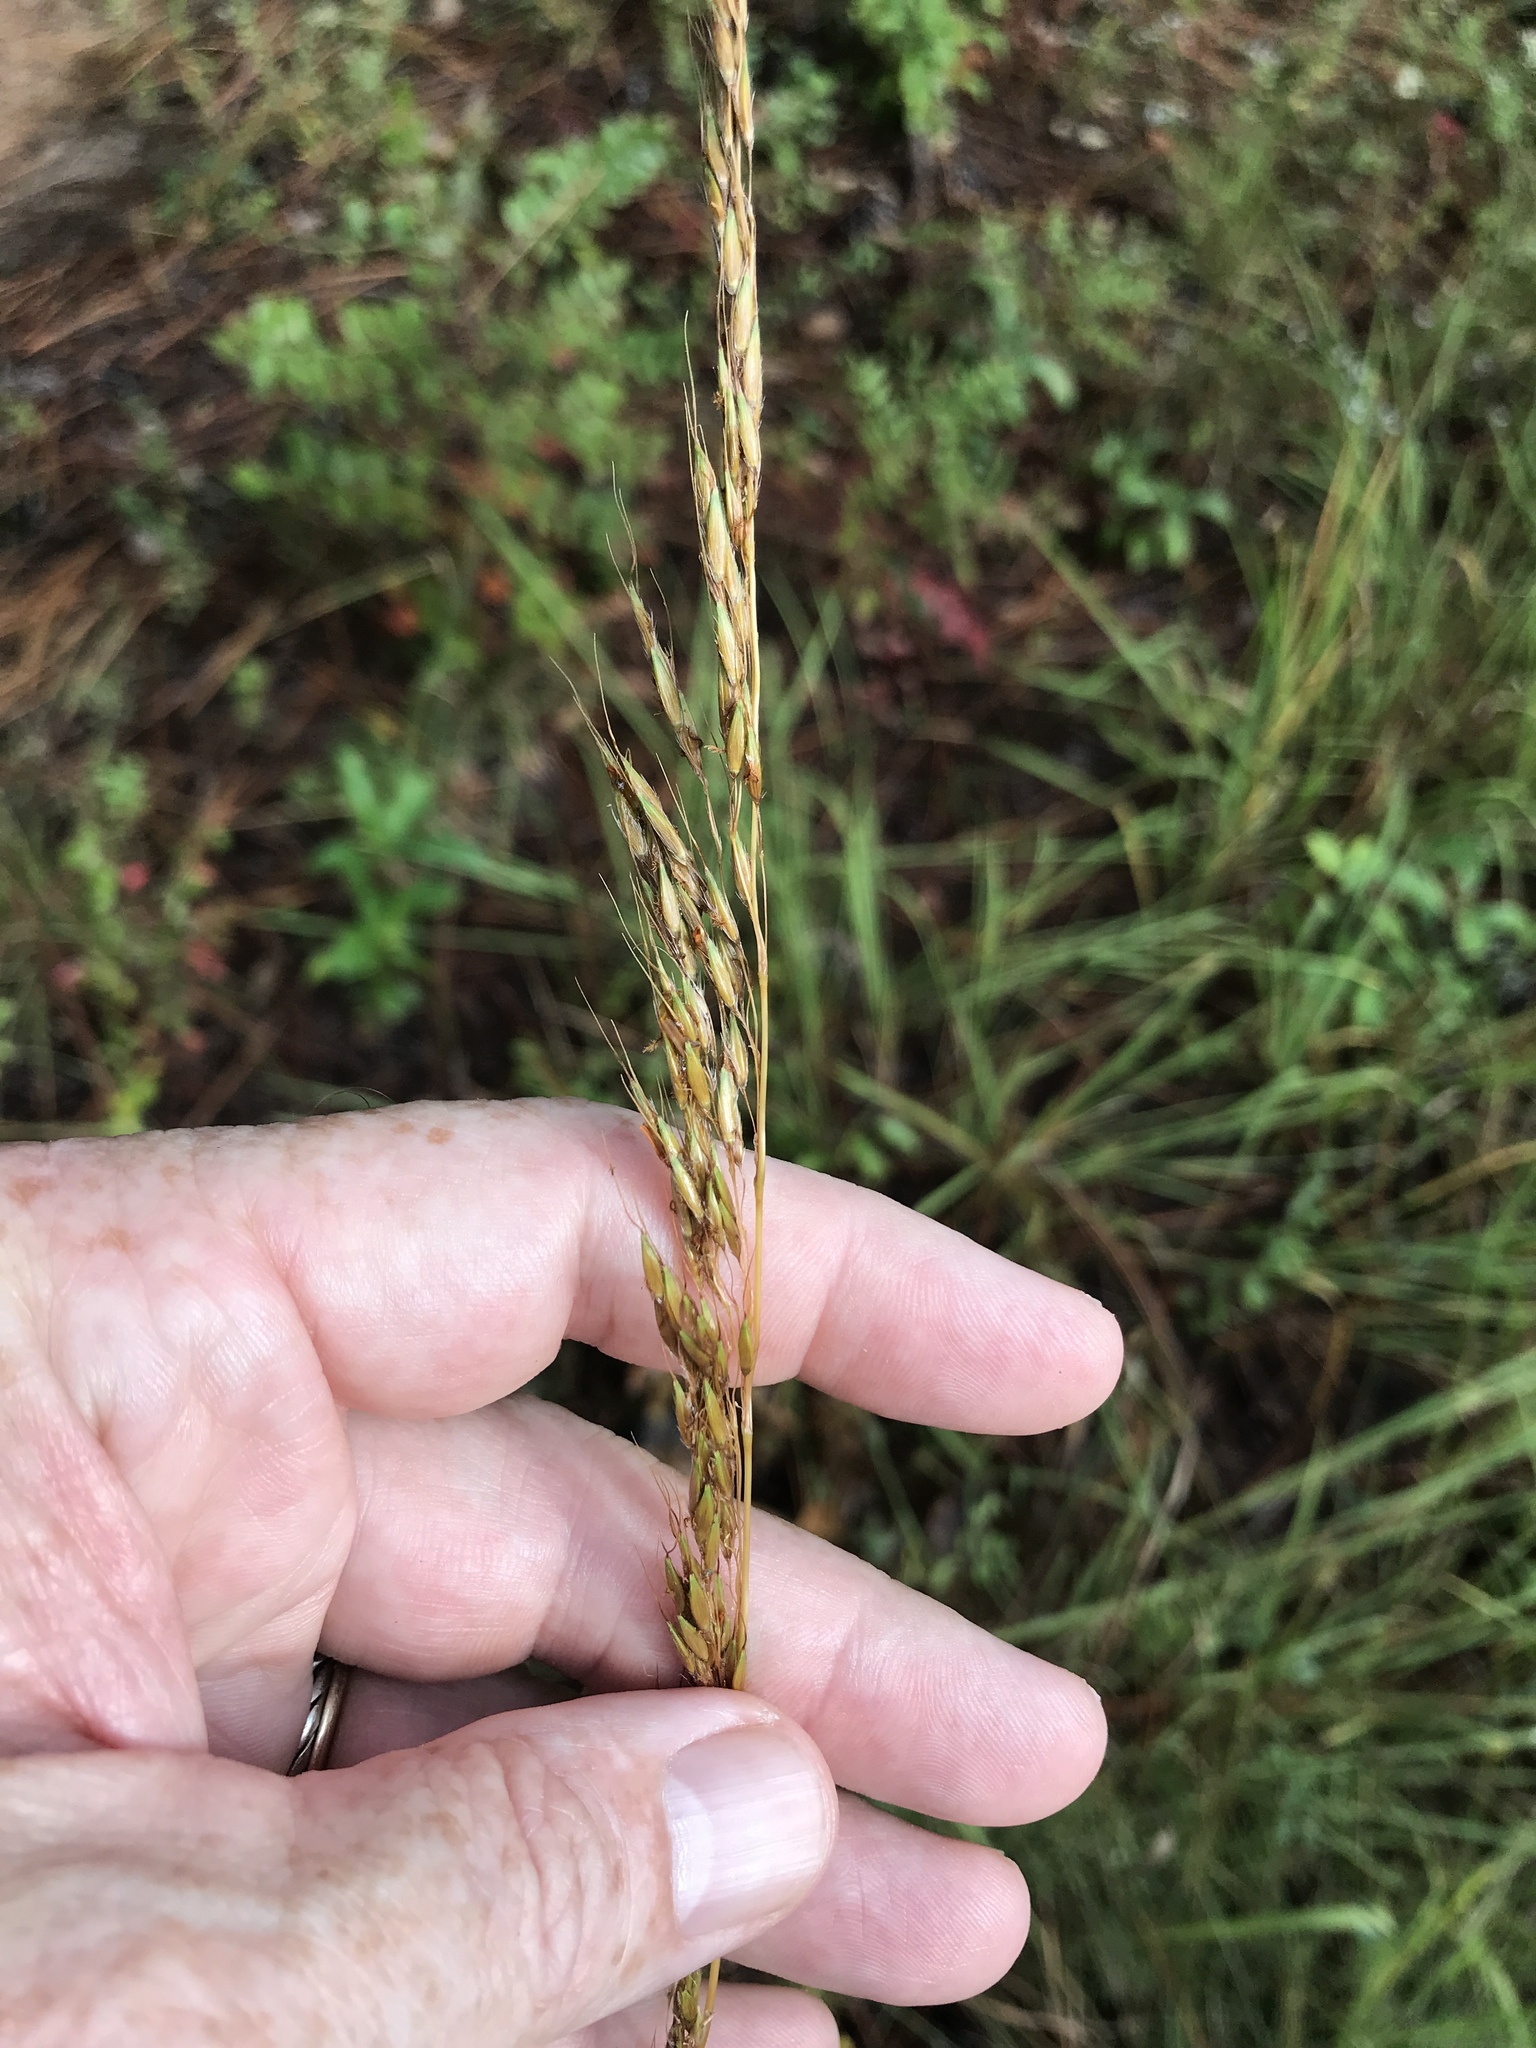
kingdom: Plantae
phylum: Tracheophyta
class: Liliopsida
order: Poales
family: Poaceae
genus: Sorghastrum
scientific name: Sorghastrum nutans
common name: Indian grass
